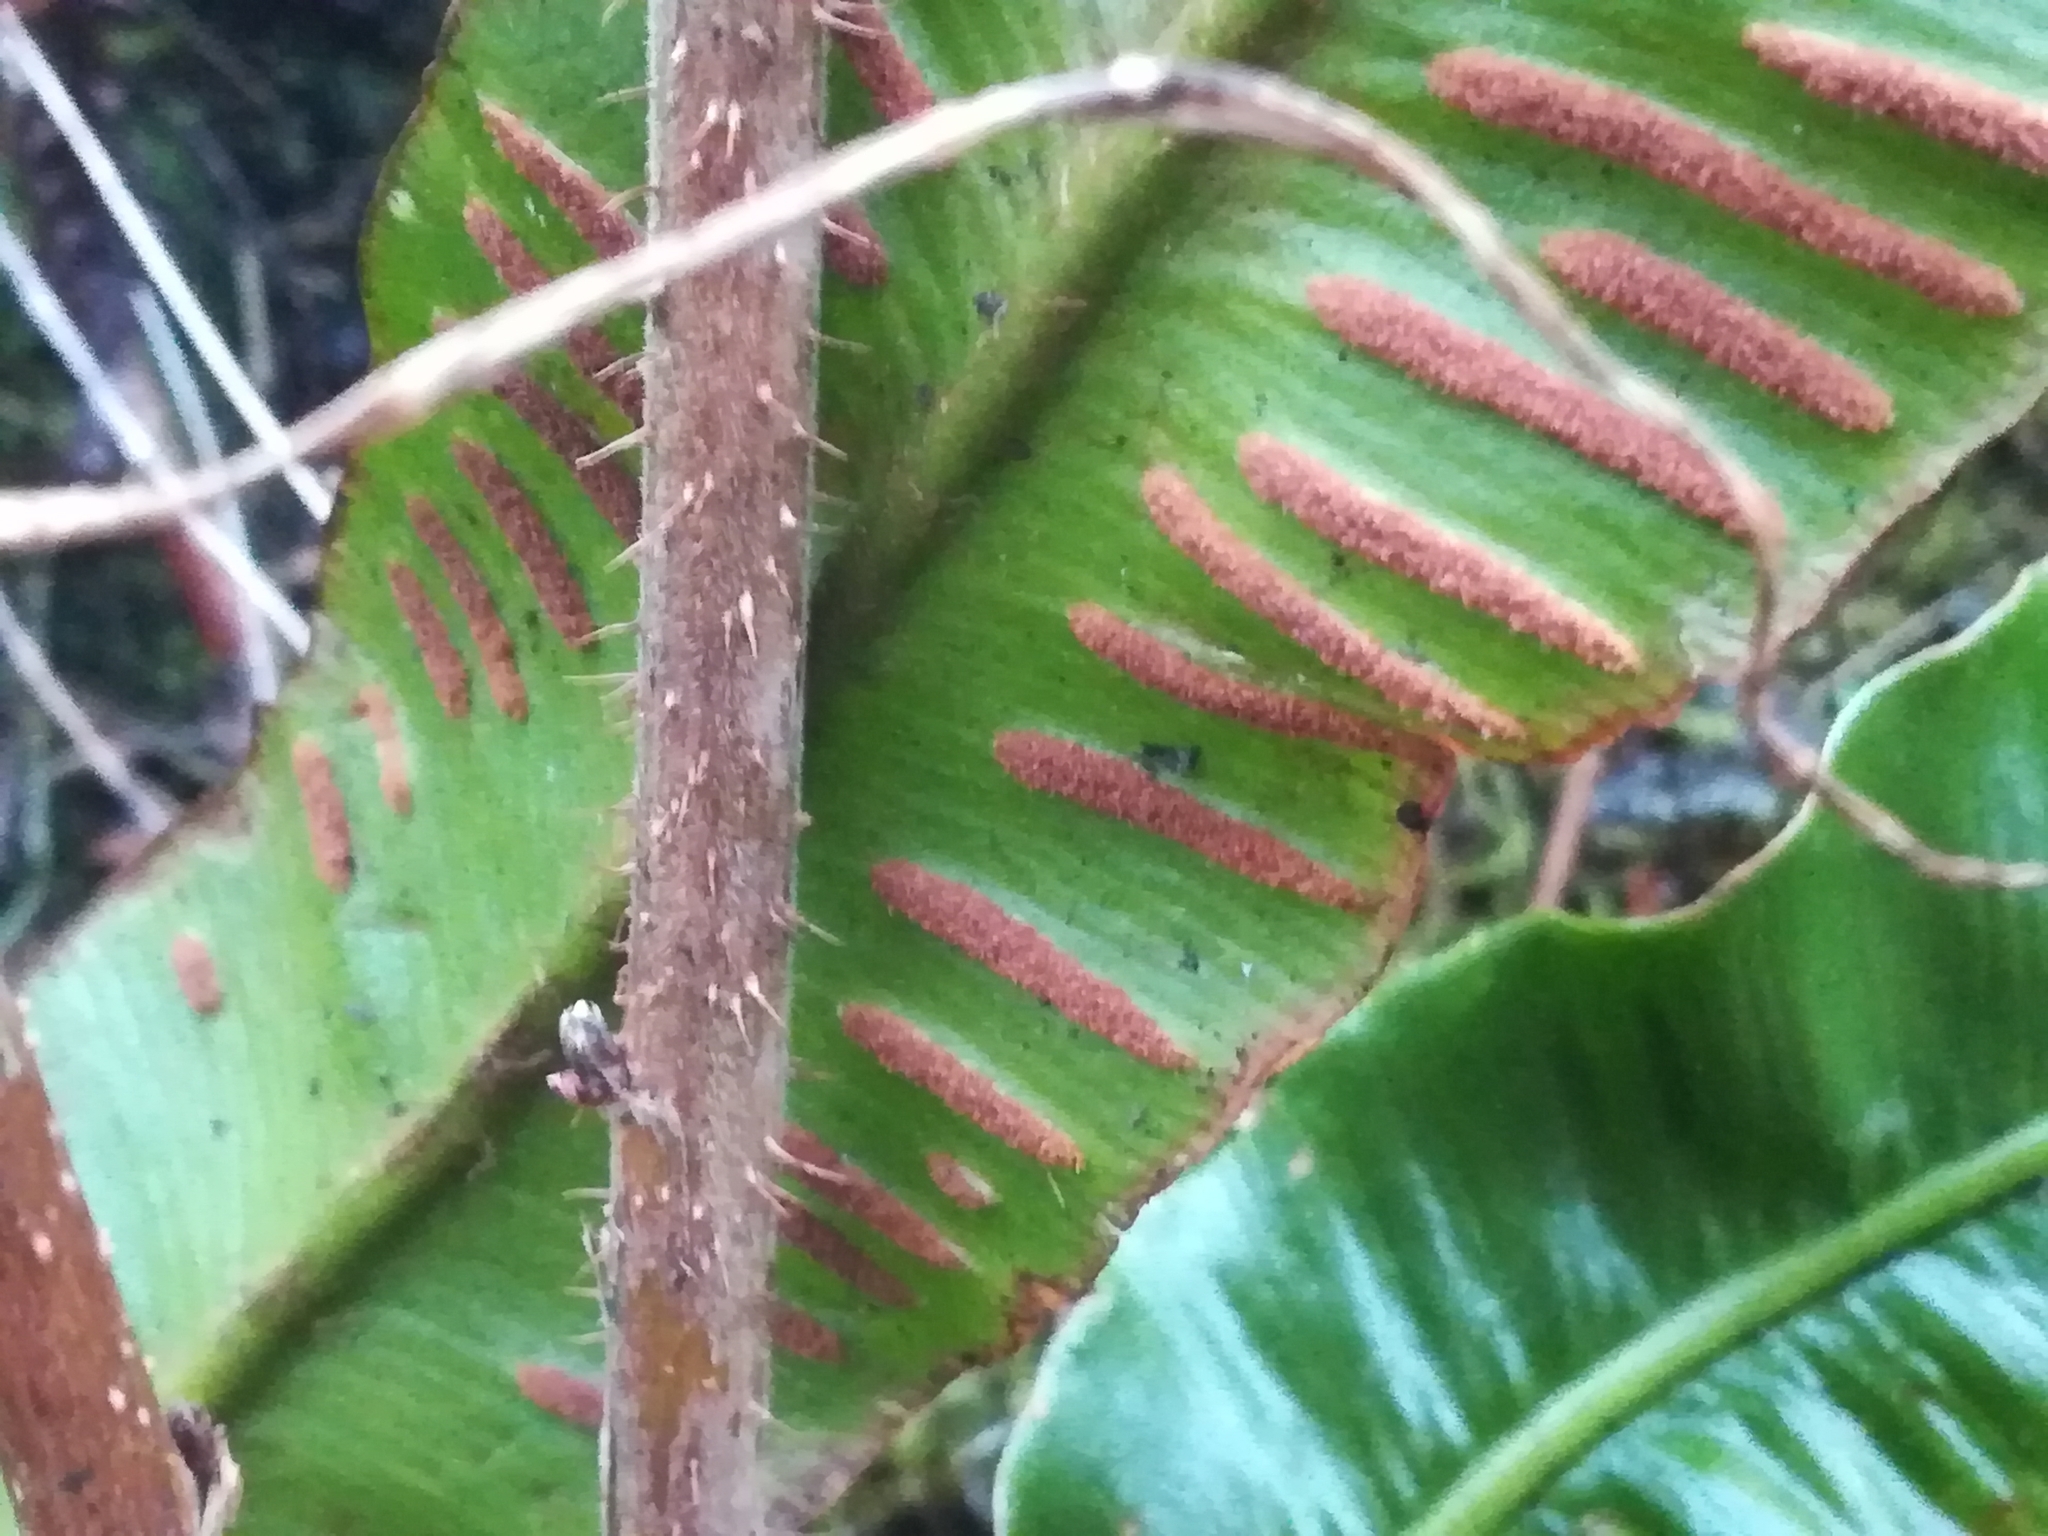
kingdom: Plantae
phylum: Tracheophyta
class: Polypodiopsida
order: Polypodiales
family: Aspleniaceae
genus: Asplenium
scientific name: Asplenium scolopendrium
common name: Hart's-tongue fern
